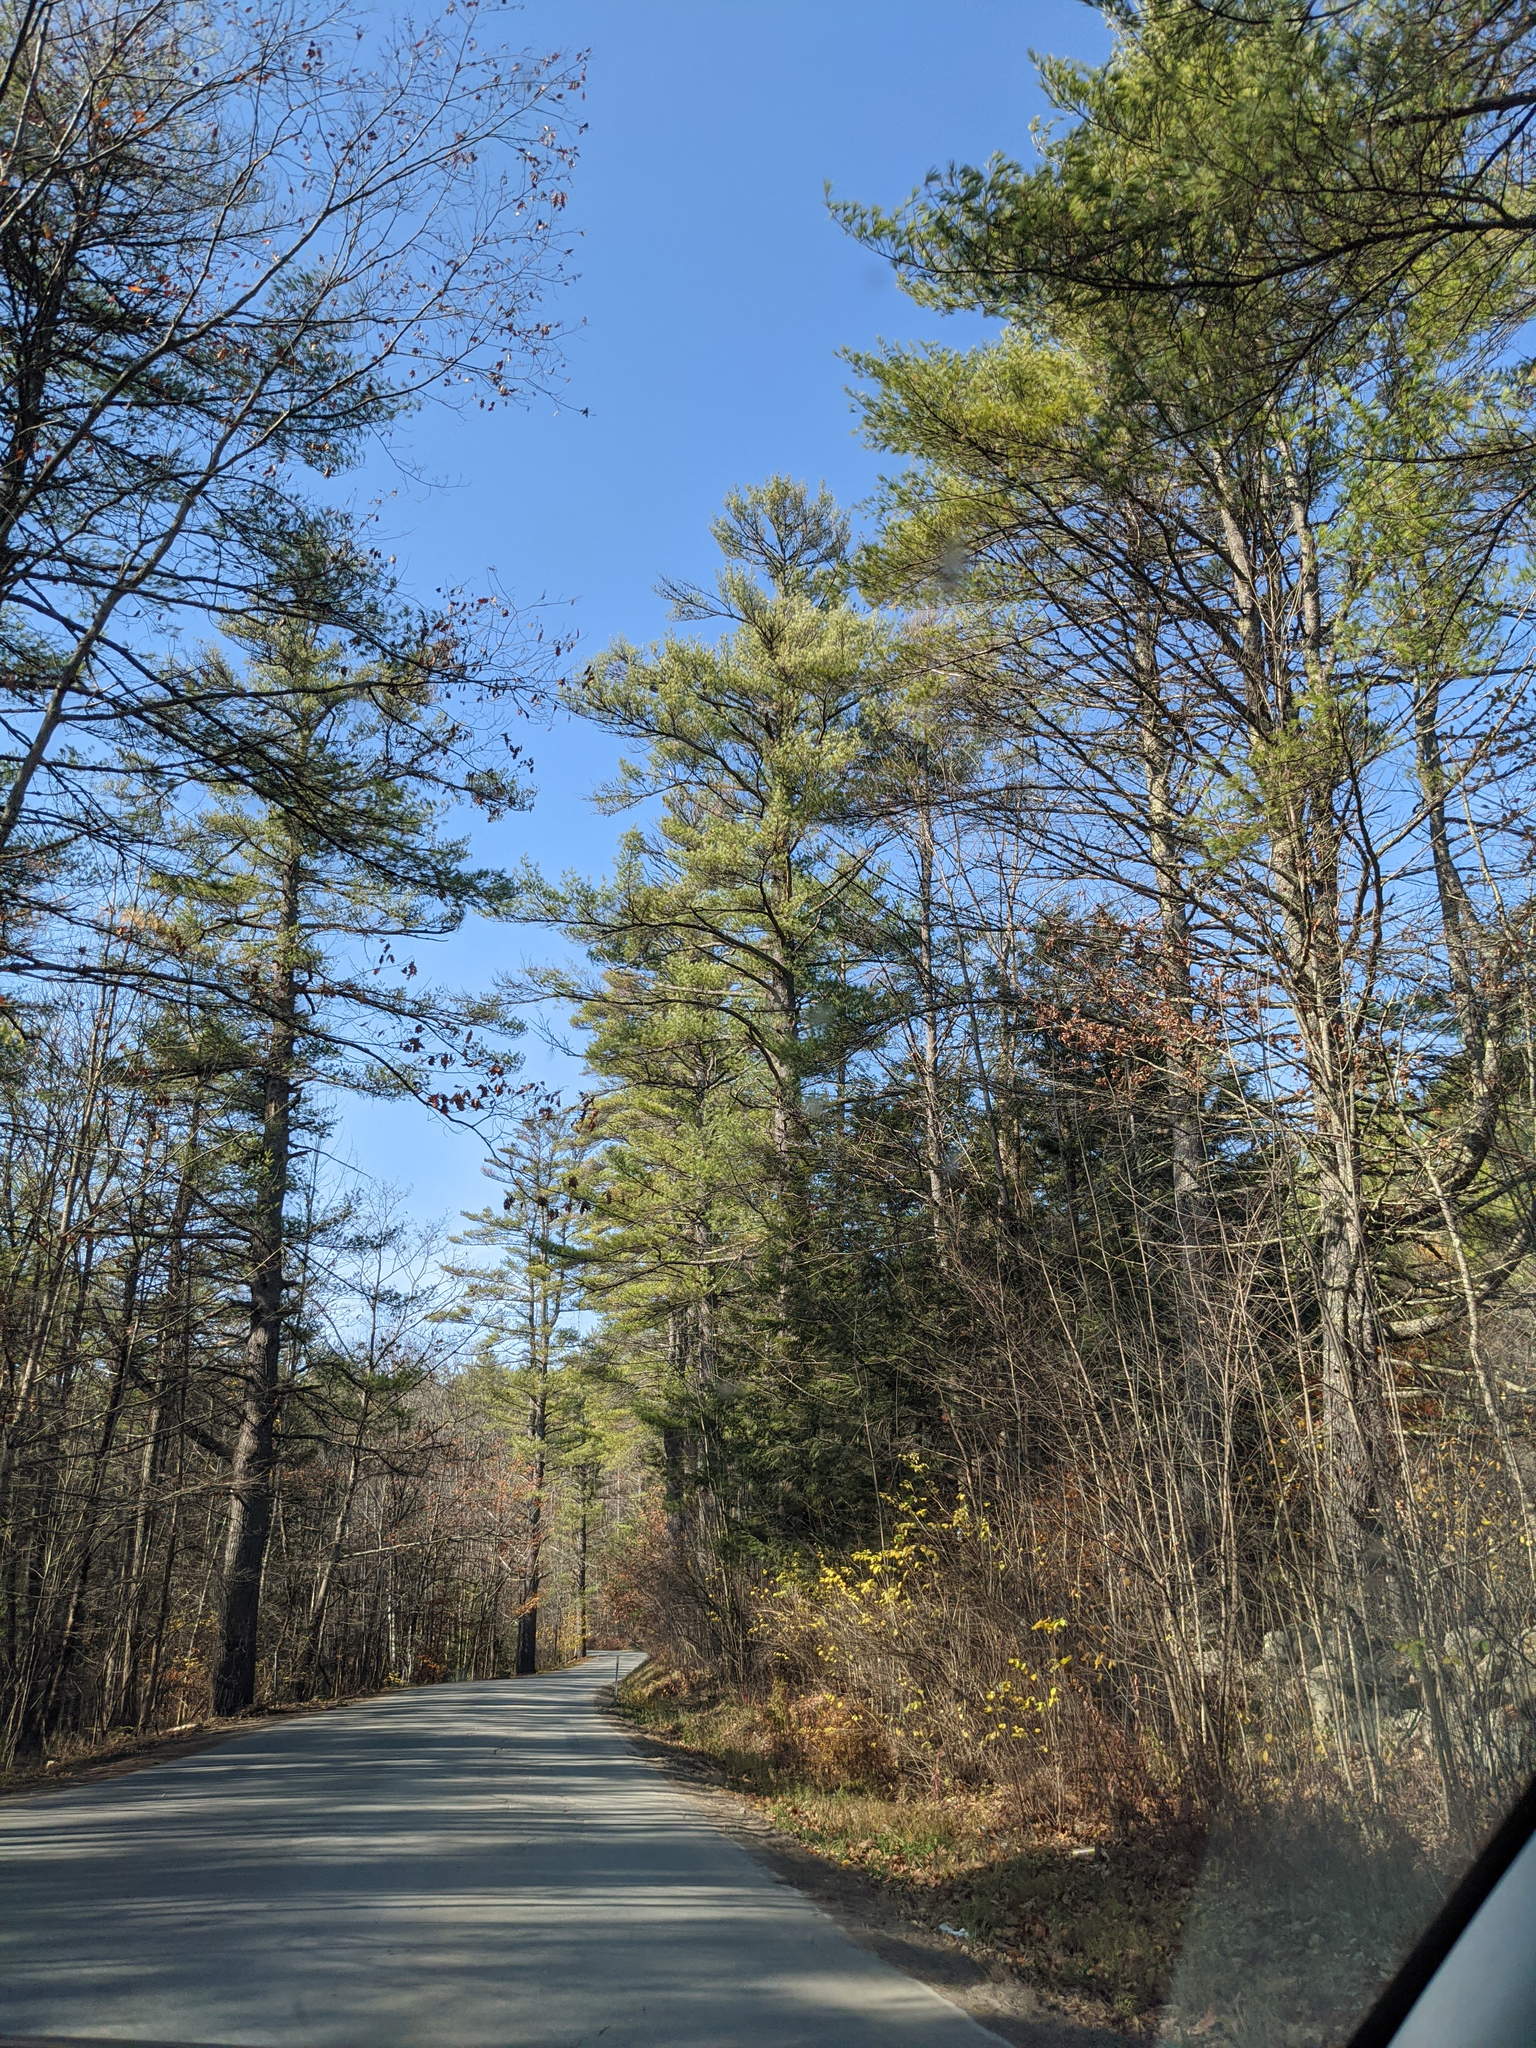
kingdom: Plantae
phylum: Tracheophyta
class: Pinopsida
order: Pinales
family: Pinaceae
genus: Pinus
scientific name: Pinus strobus
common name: Weymouth pine
